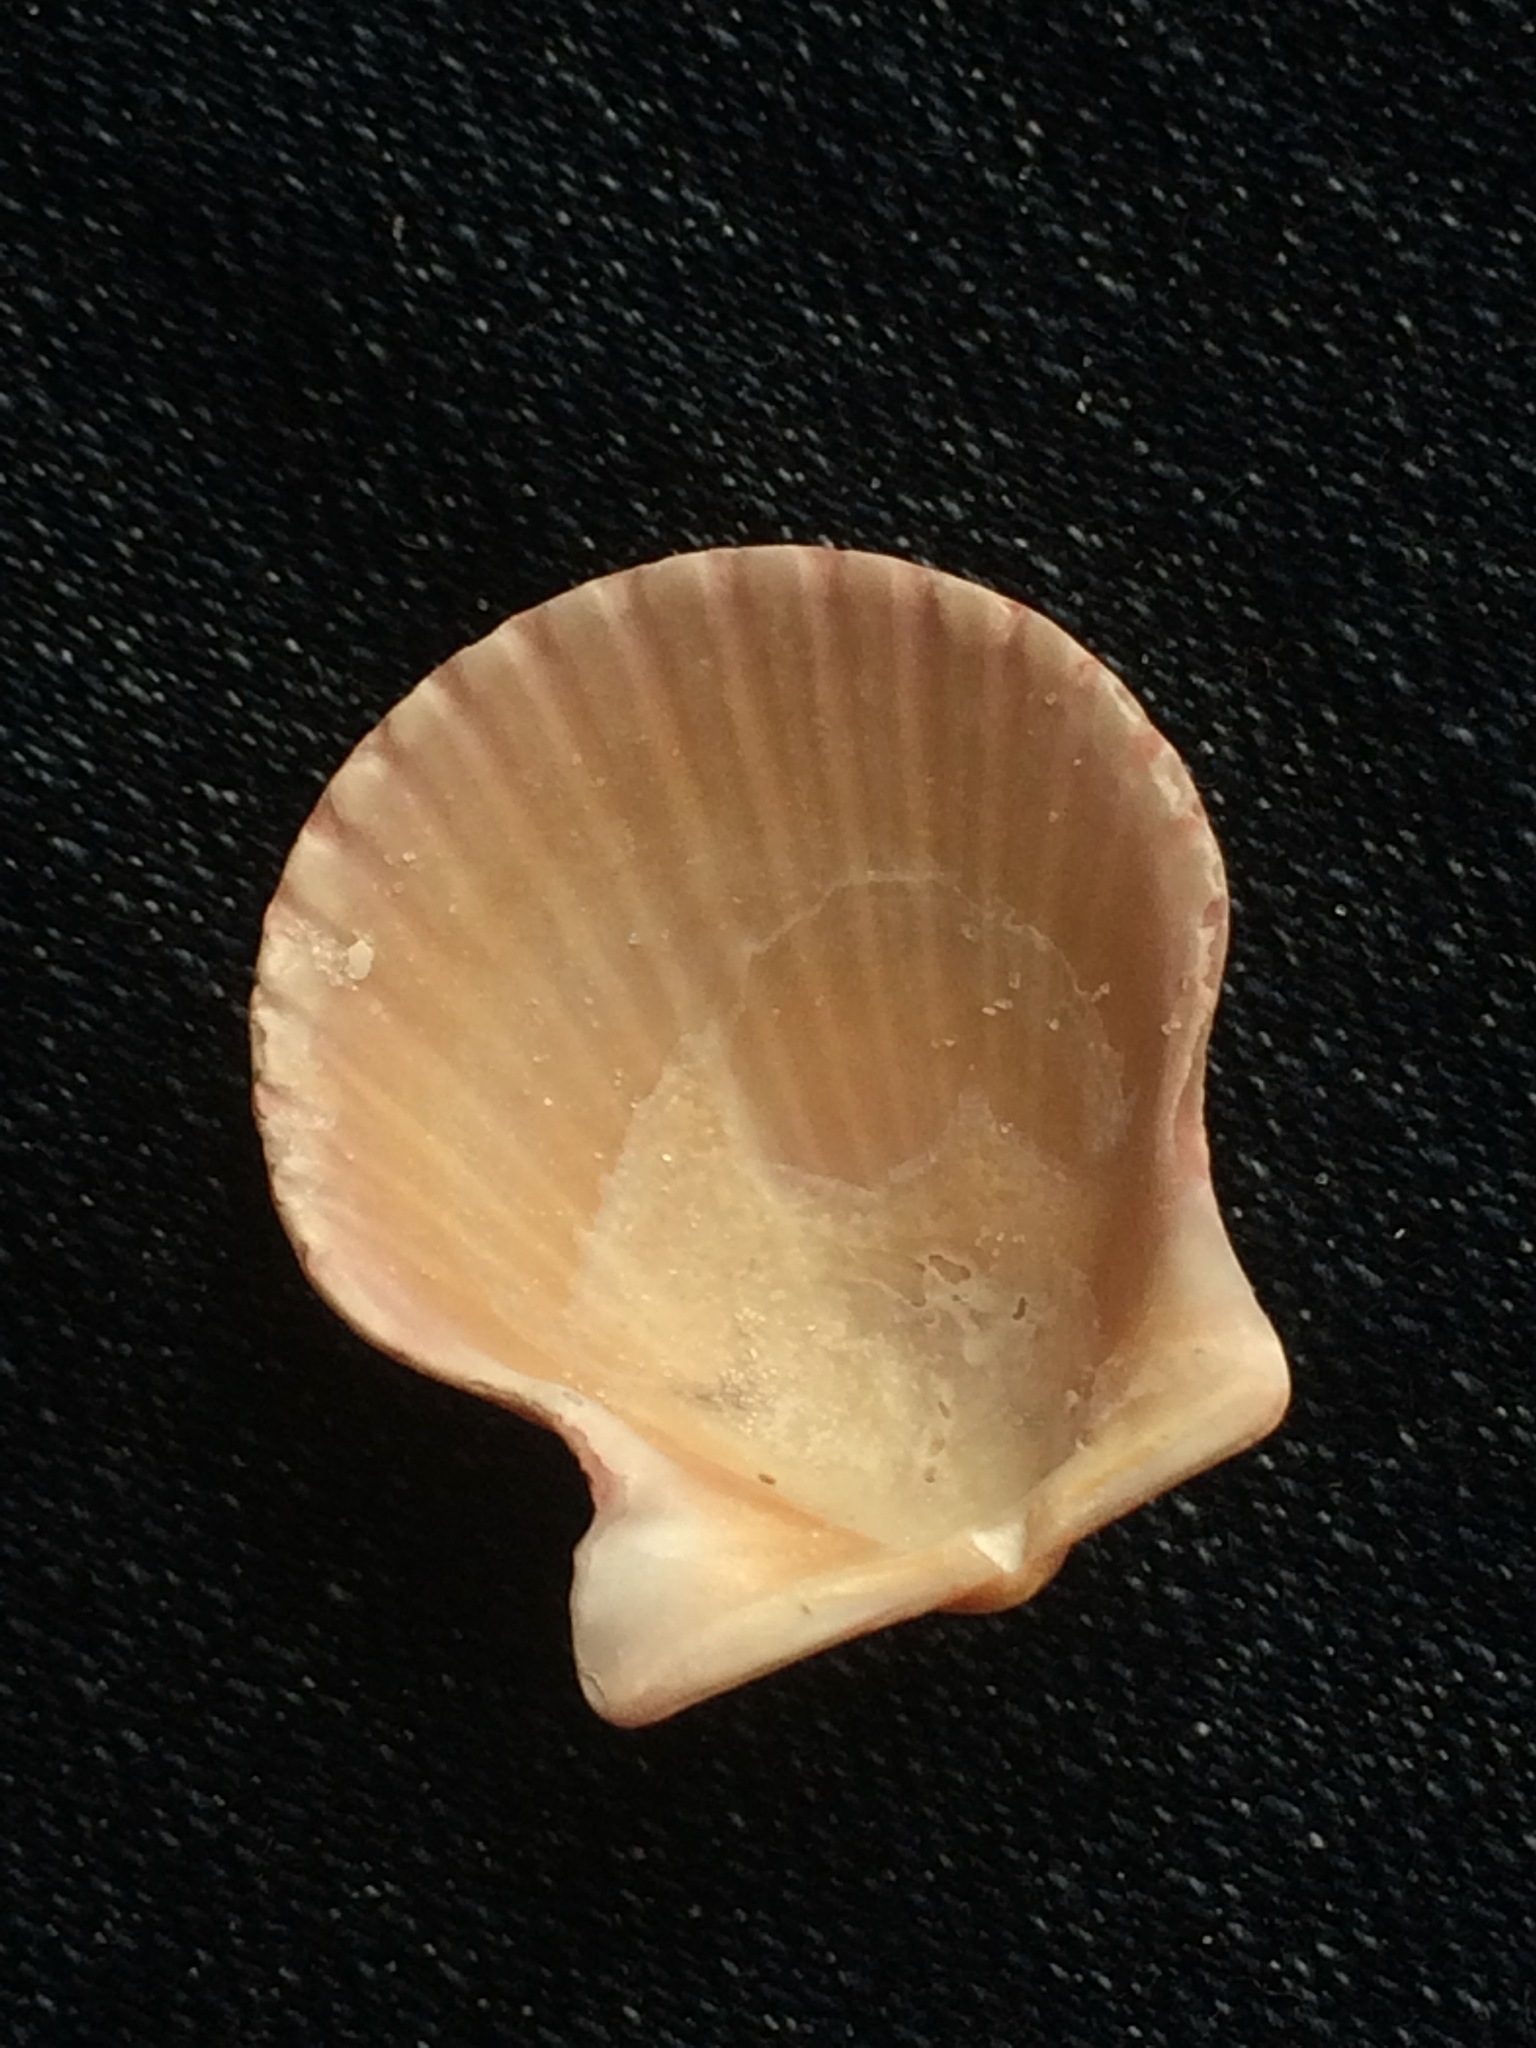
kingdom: Animalia
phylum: Mollusca
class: Bivalvia
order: Pectinida
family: Pectinidae
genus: Lindapecten
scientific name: Lindapecten muscosus
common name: Rough scallop
